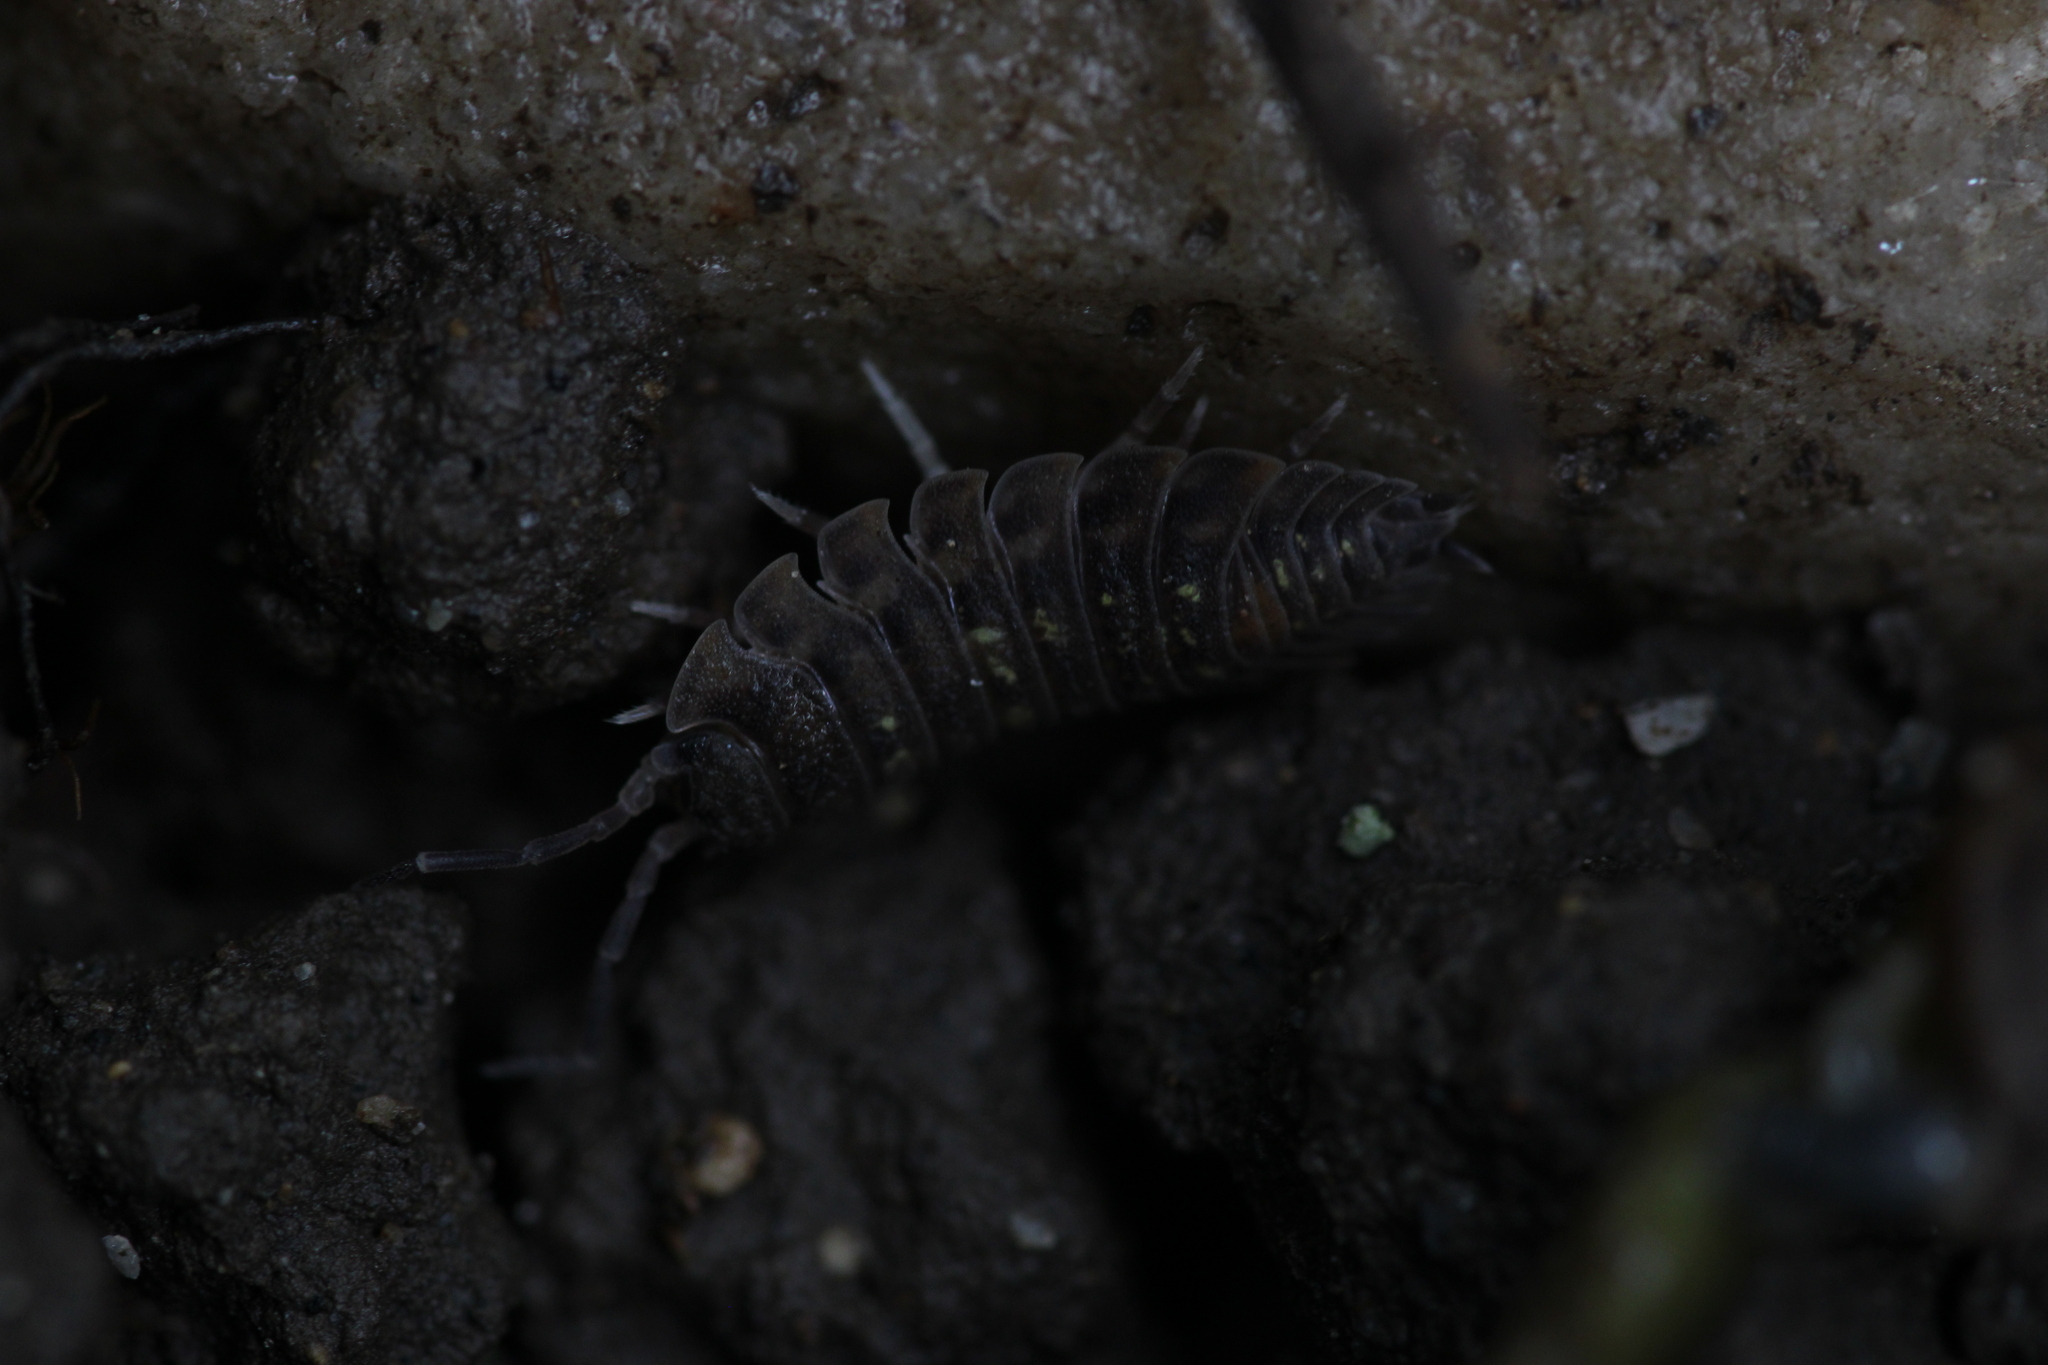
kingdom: Animalia
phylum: Arthropoda
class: Malacostraca
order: Isopoda
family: Oniscidae
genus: Oniscus
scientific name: Oniscus asellus
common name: Common shiny woodlouse
